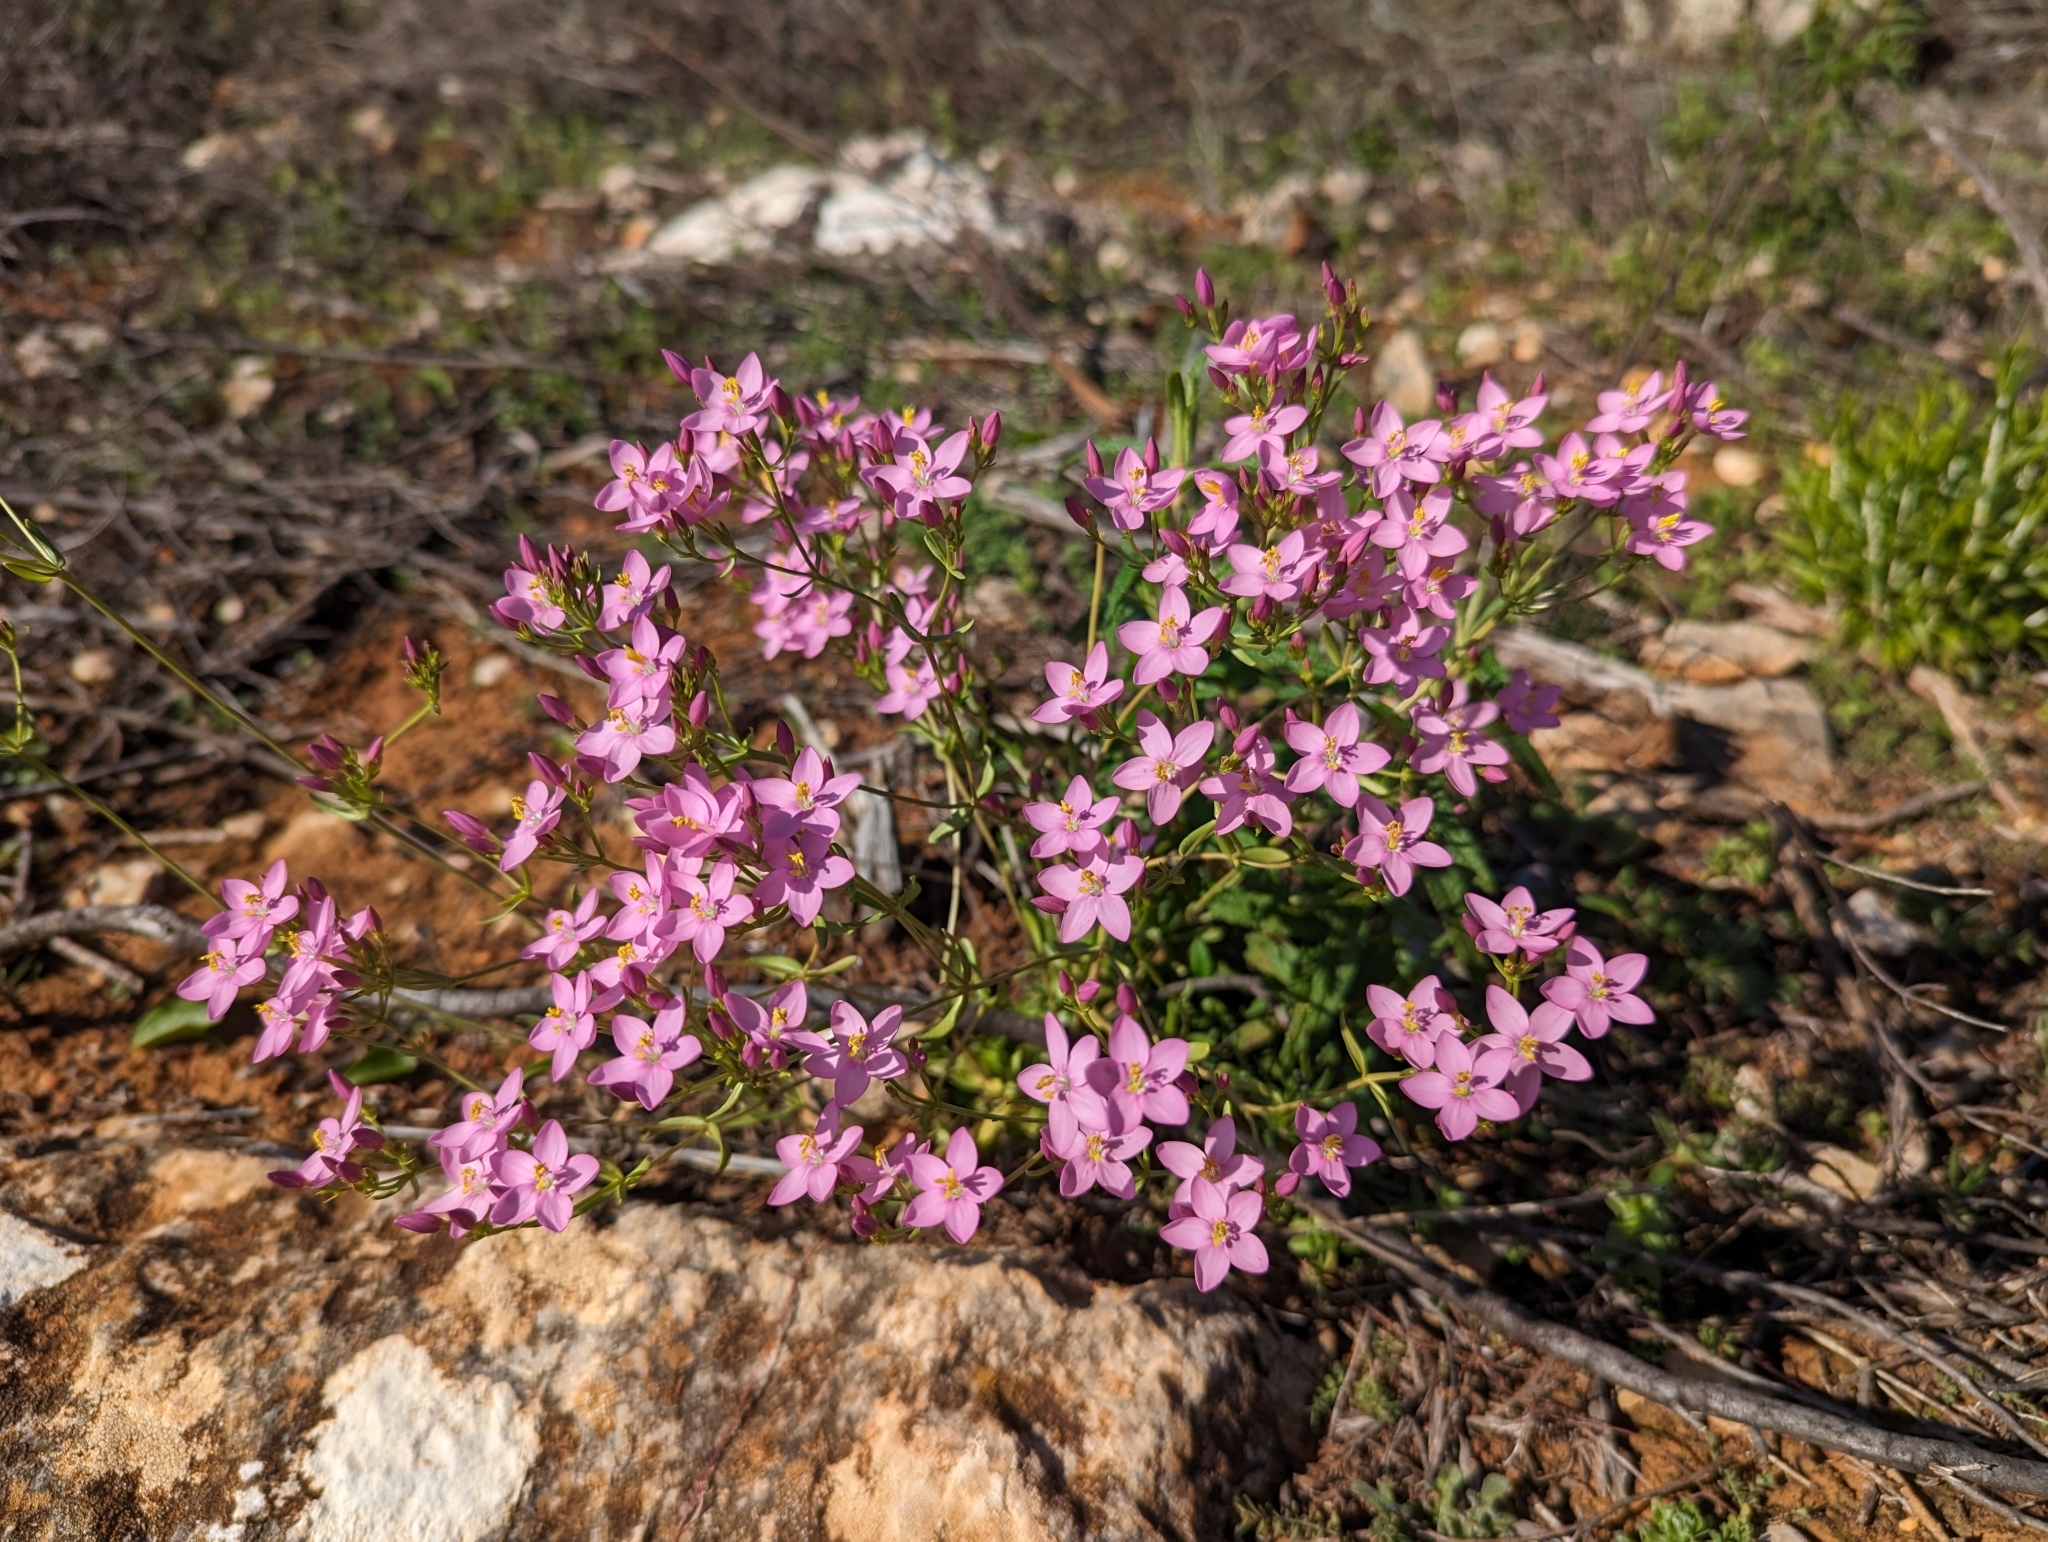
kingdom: Plantae
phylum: Tracheophyta
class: Magnoliopsida
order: Gentianales
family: Gentianaceae
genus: Centaurium
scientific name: Centaurium erythraea
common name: Common centaury
